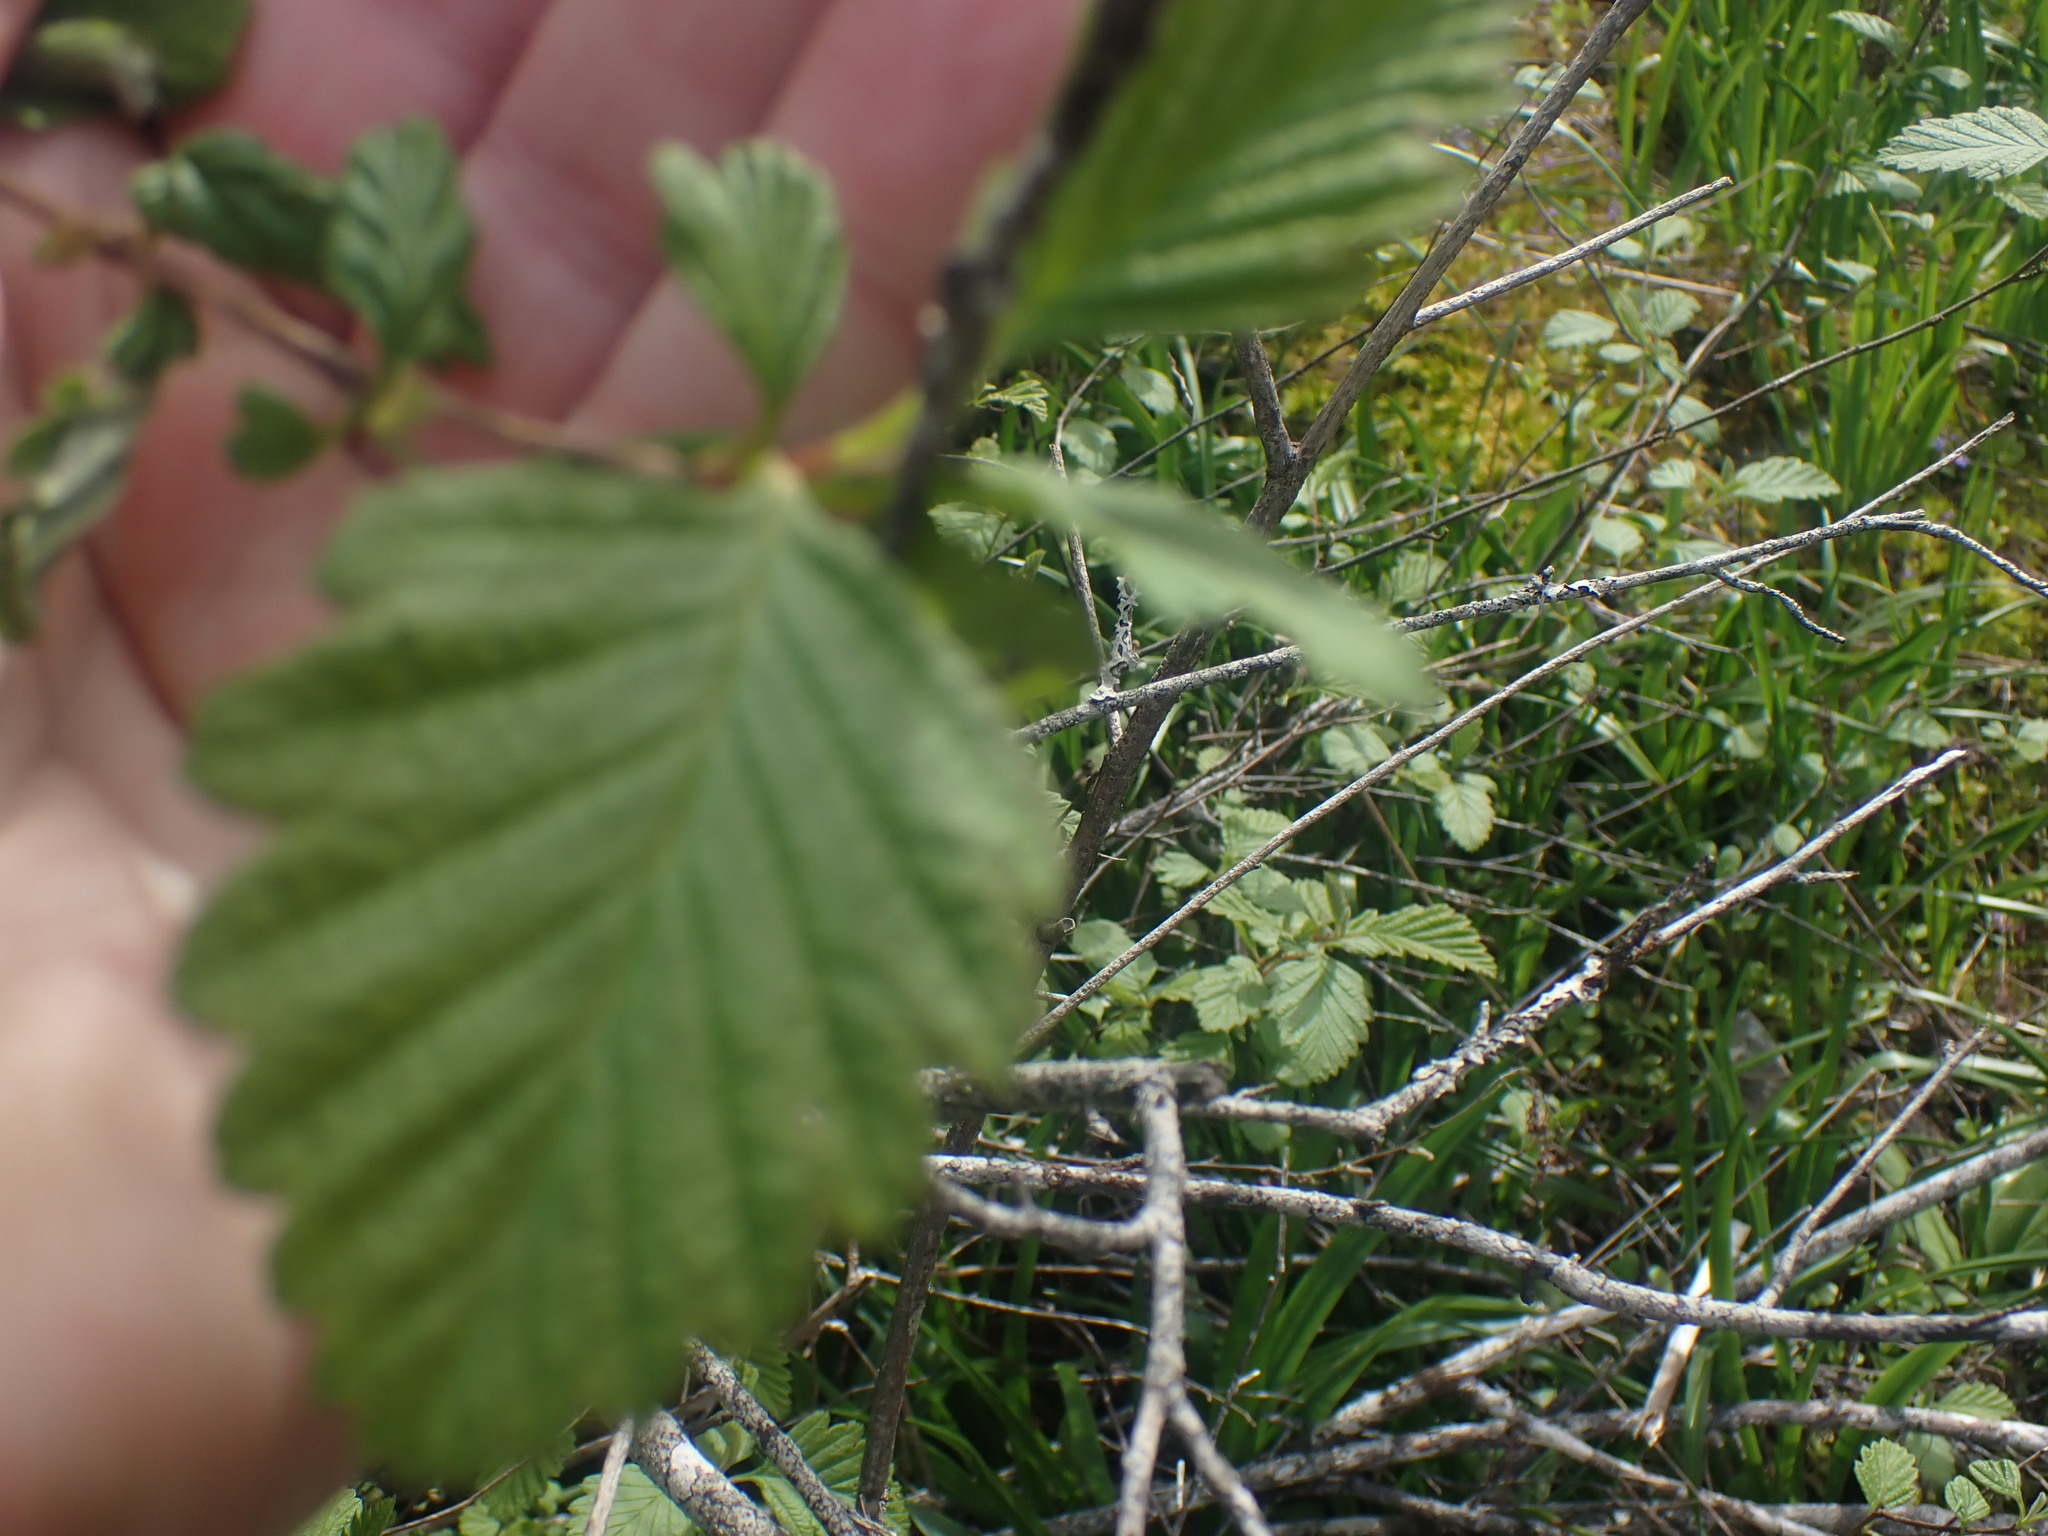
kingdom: Plantae
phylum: Tracheophyta
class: Magnoliopsida
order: Rosales
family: Rosaceae
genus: Holodiscus
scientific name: Holodiscus discolor
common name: Oceanspray
